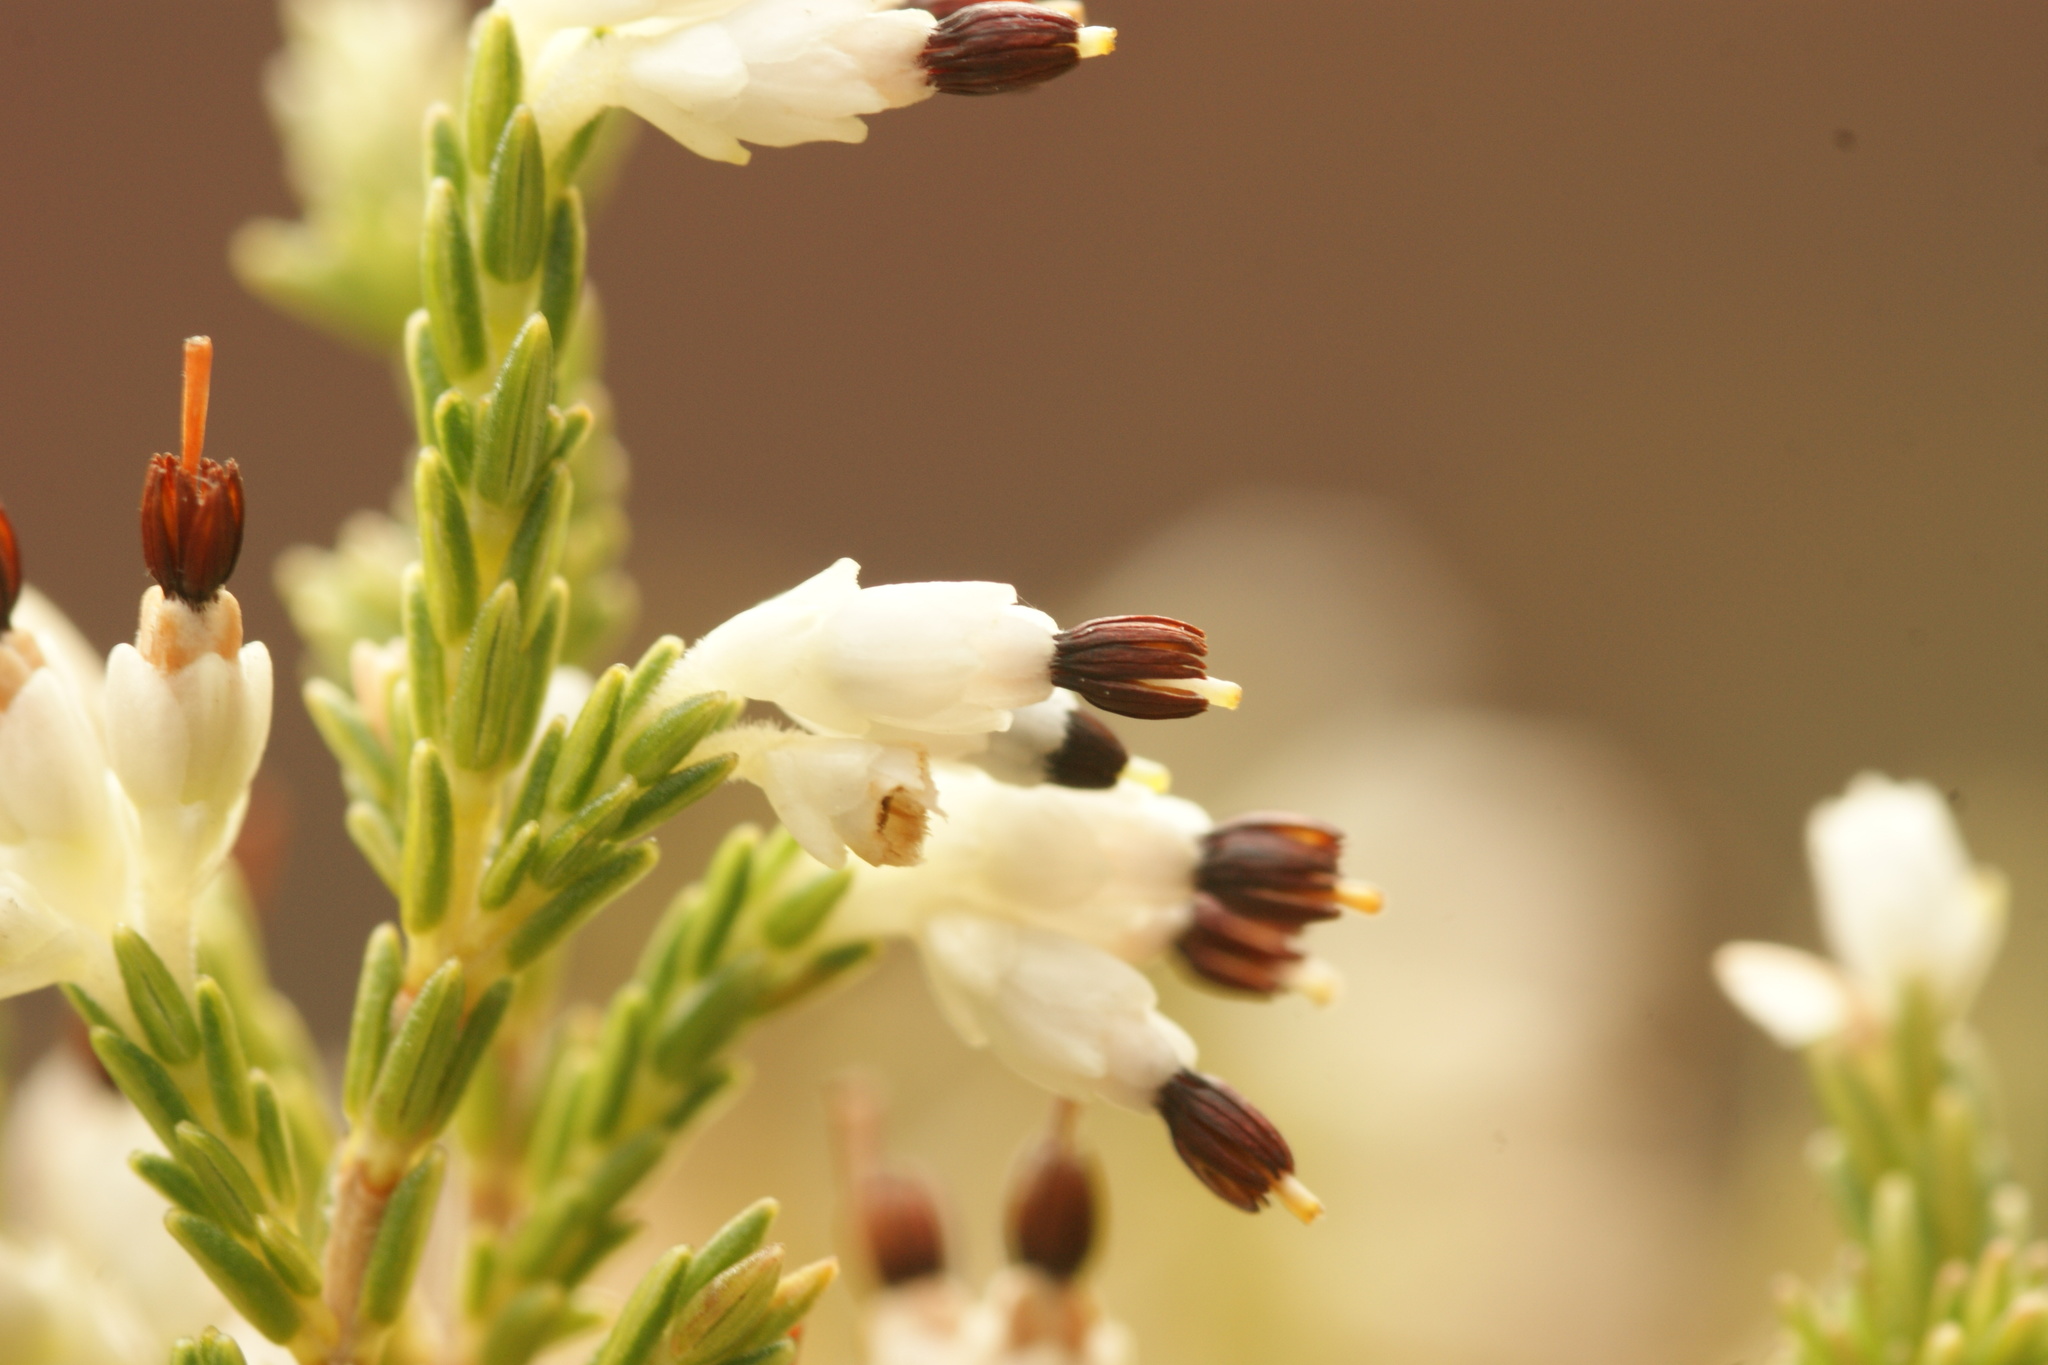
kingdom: Plantae
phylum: Tracheophyta
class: Magnoliopsida
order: Ericales
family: Ericaceae
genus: Erica
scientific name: Erica imbricata
